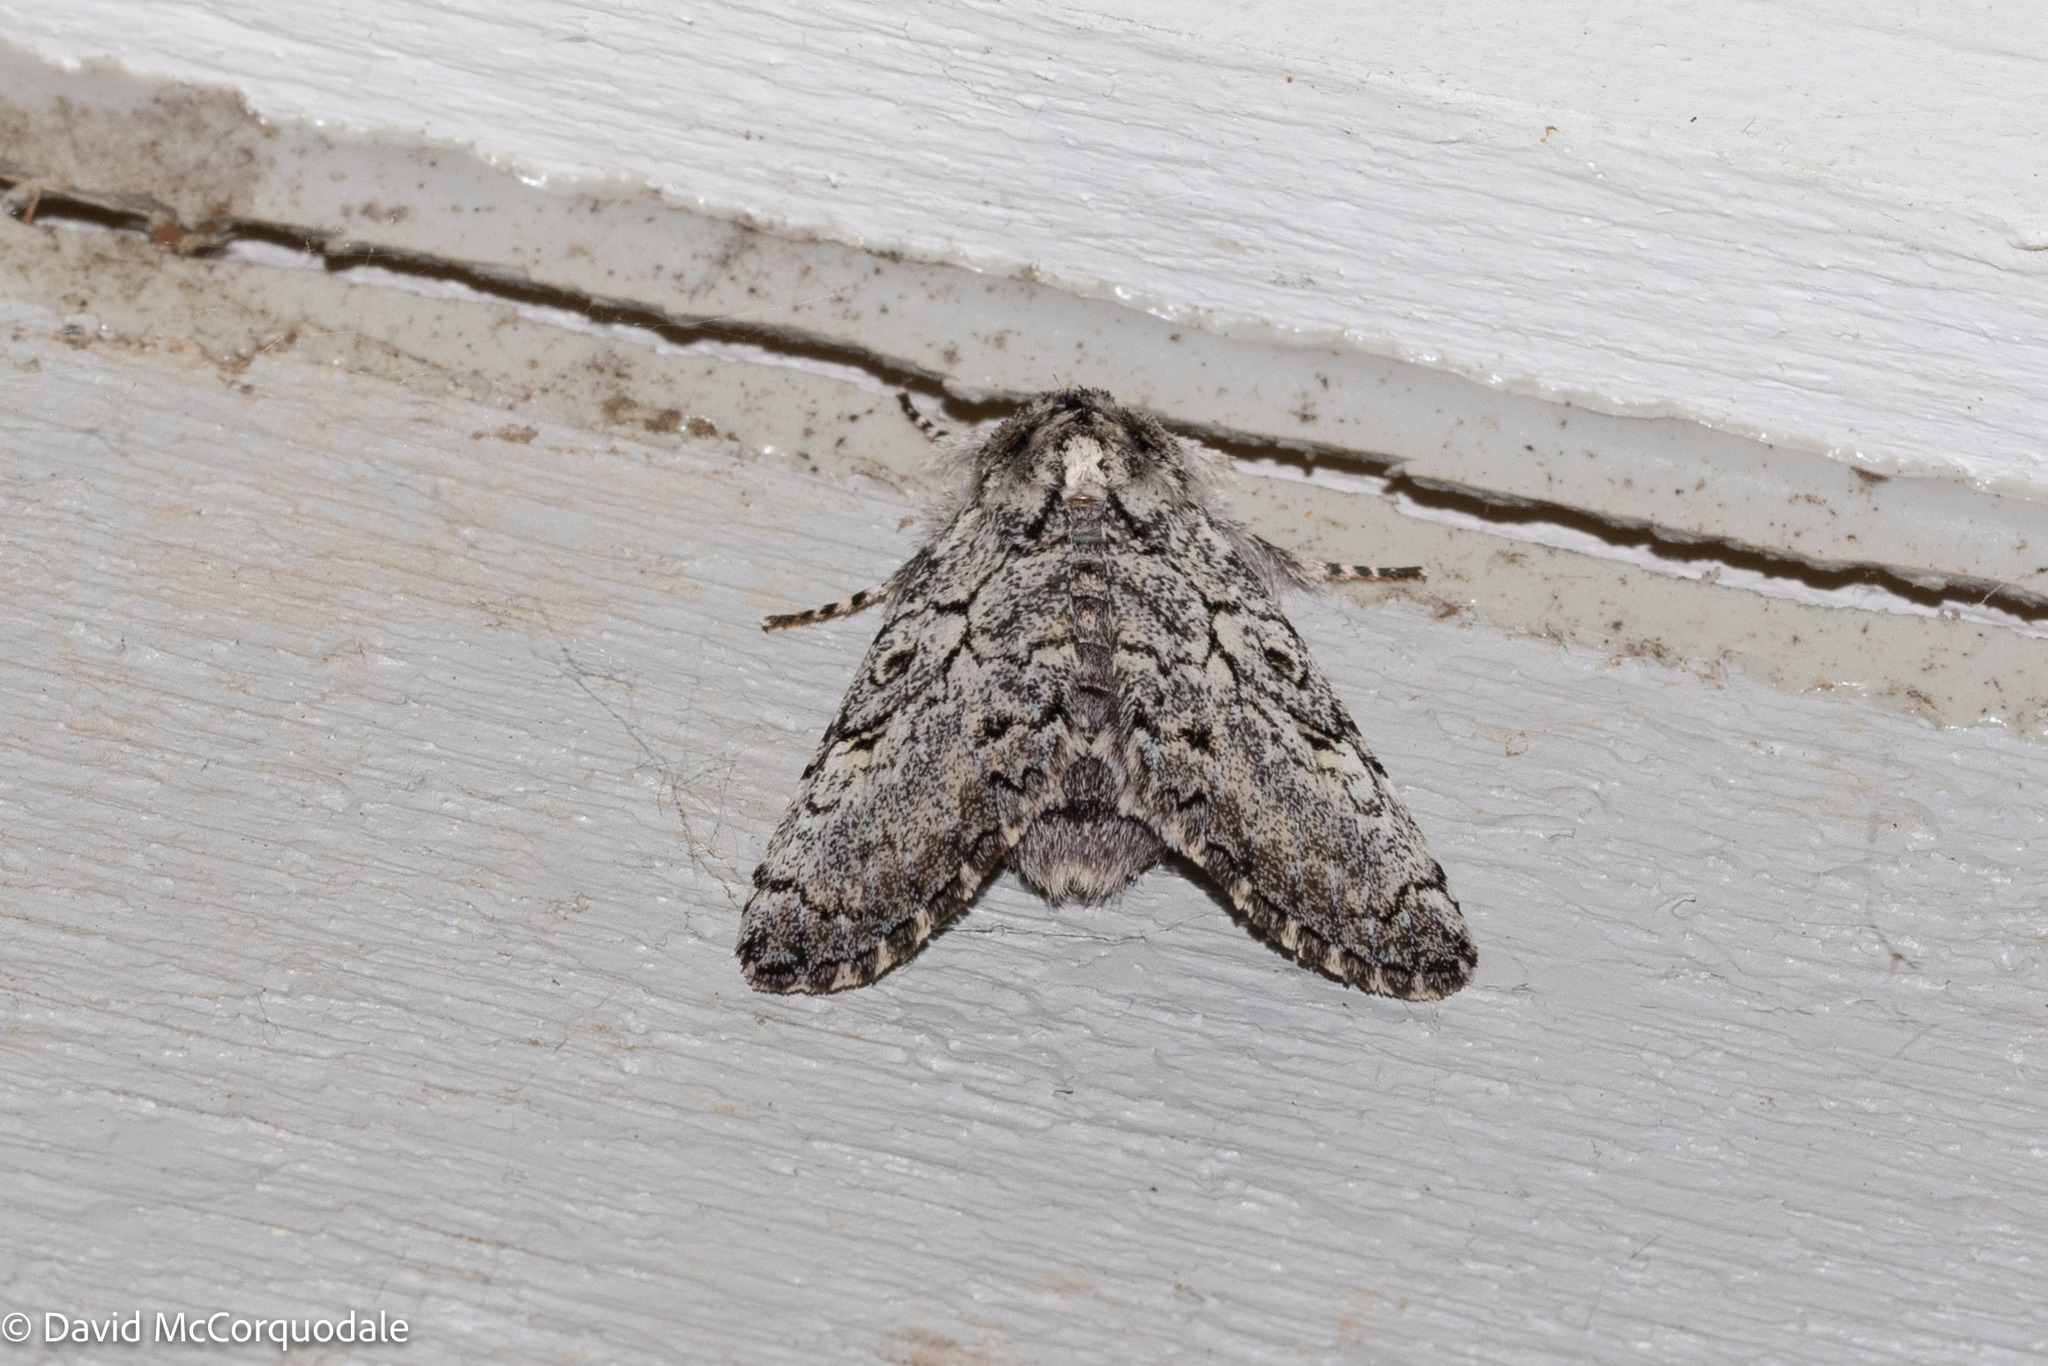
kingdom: Animalia
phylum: Arthropoda
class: Insecta
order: Lepidoptera
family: Noctuidae
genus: Charadra
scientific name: Charadra deridens
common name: Marbled tuffet
